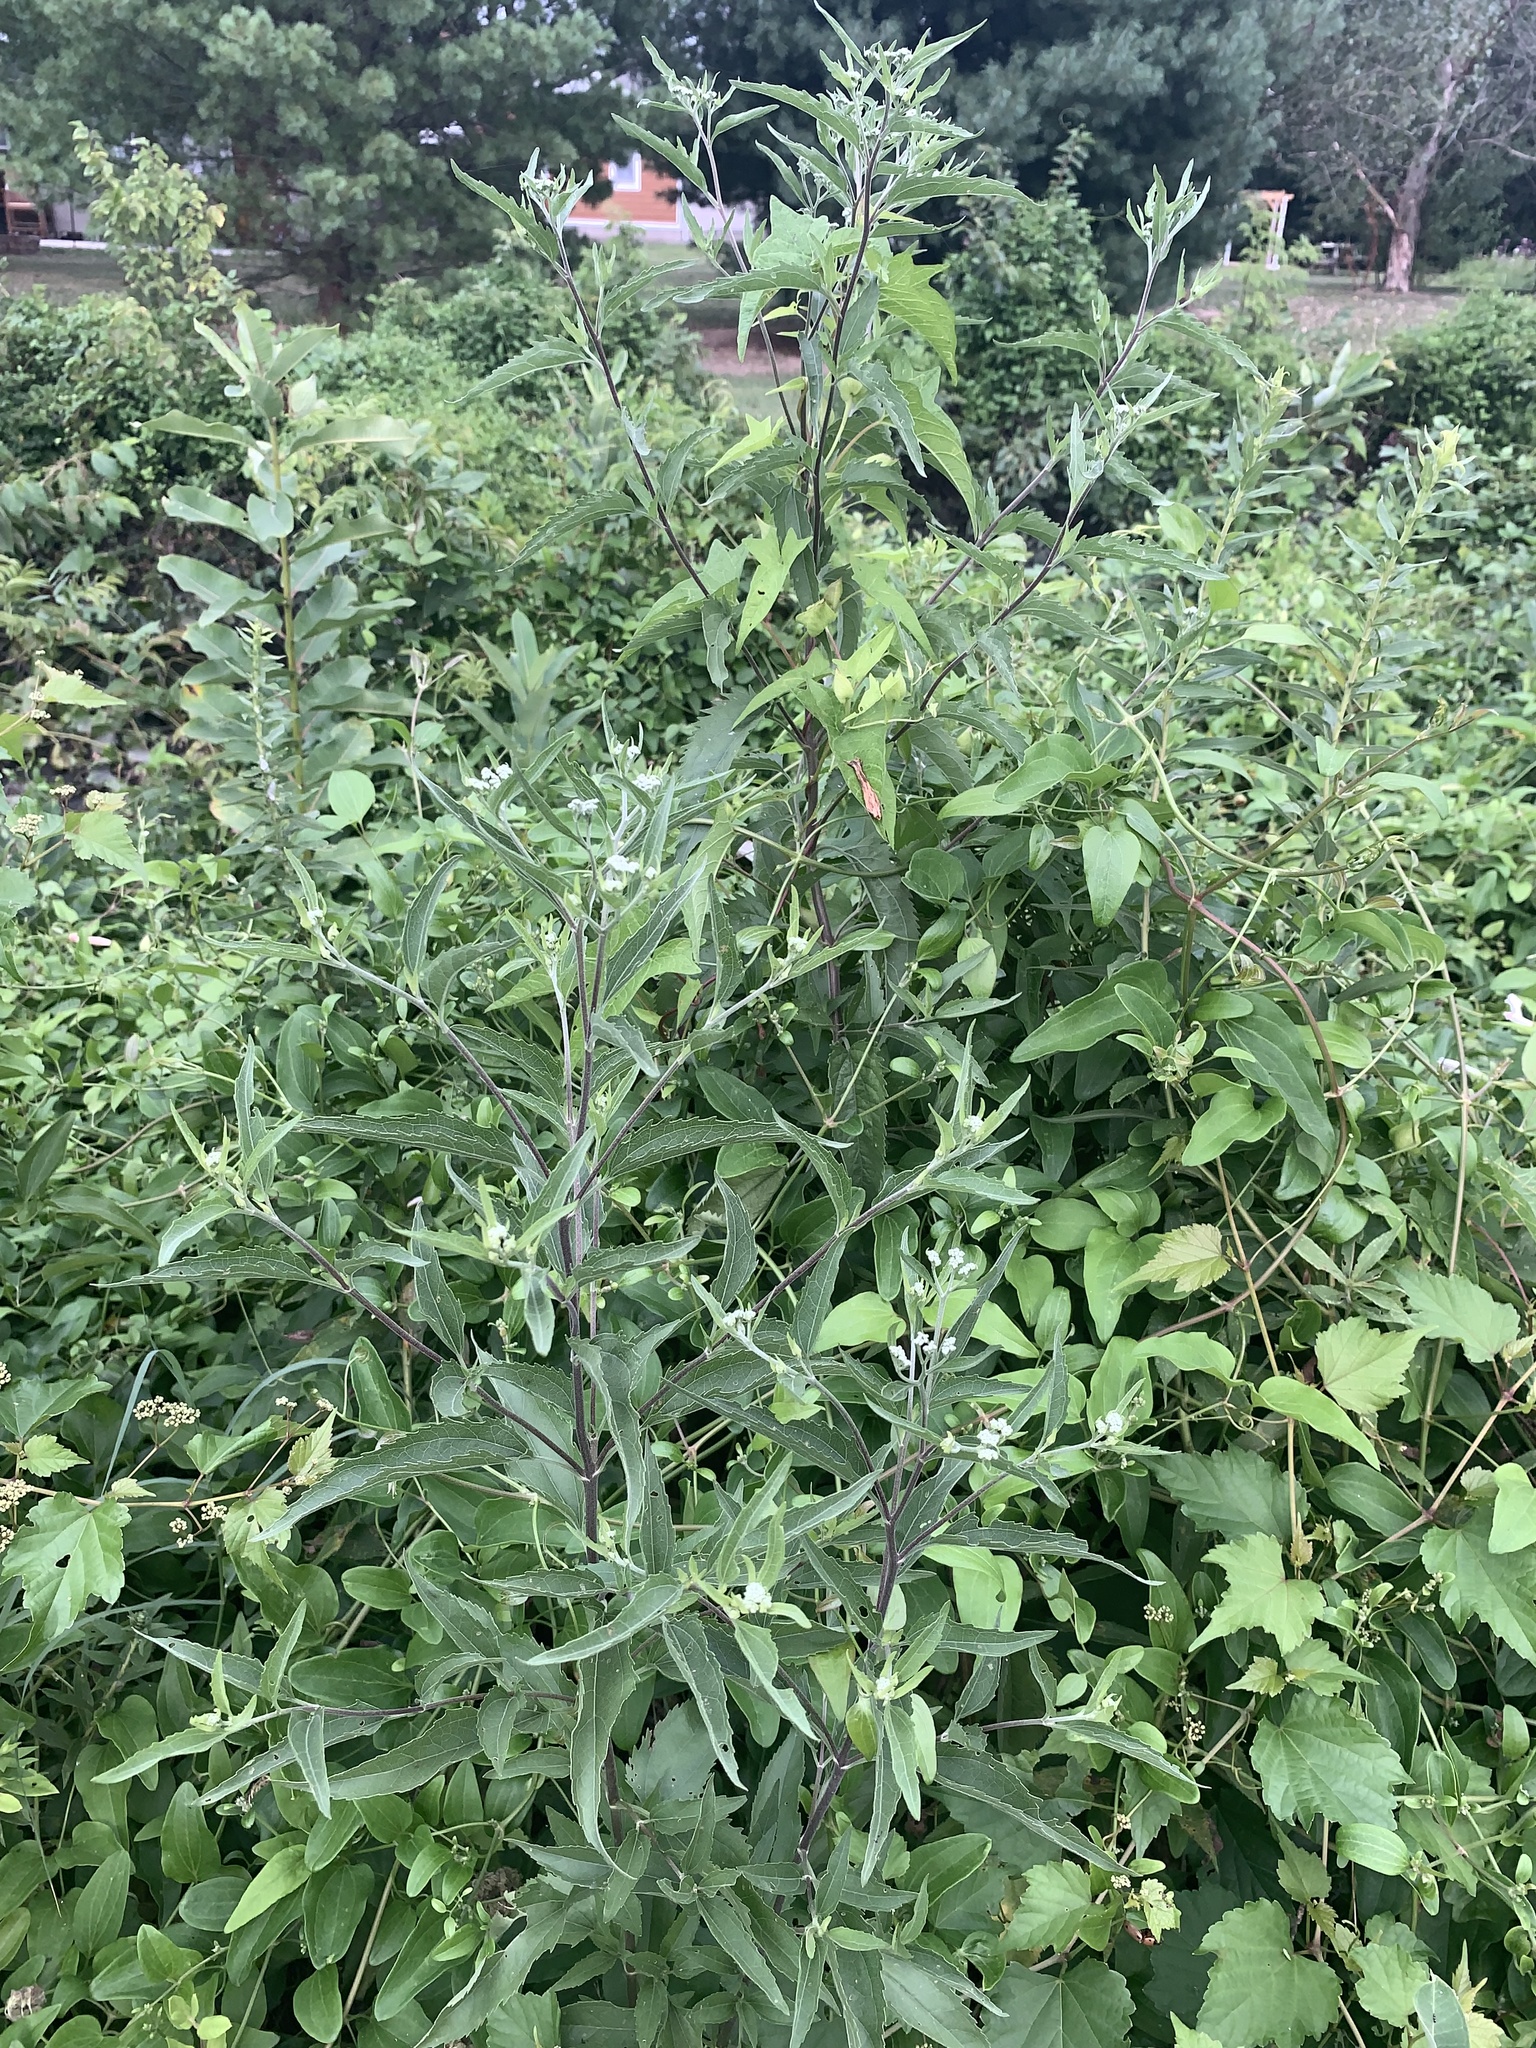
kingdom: Plantae
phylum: Tracheophyta
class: Magnoliopsida
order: Asterales
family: Asteraceae
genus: Eupatorium
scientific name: Eupatorium serotinum
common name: Late boneset
